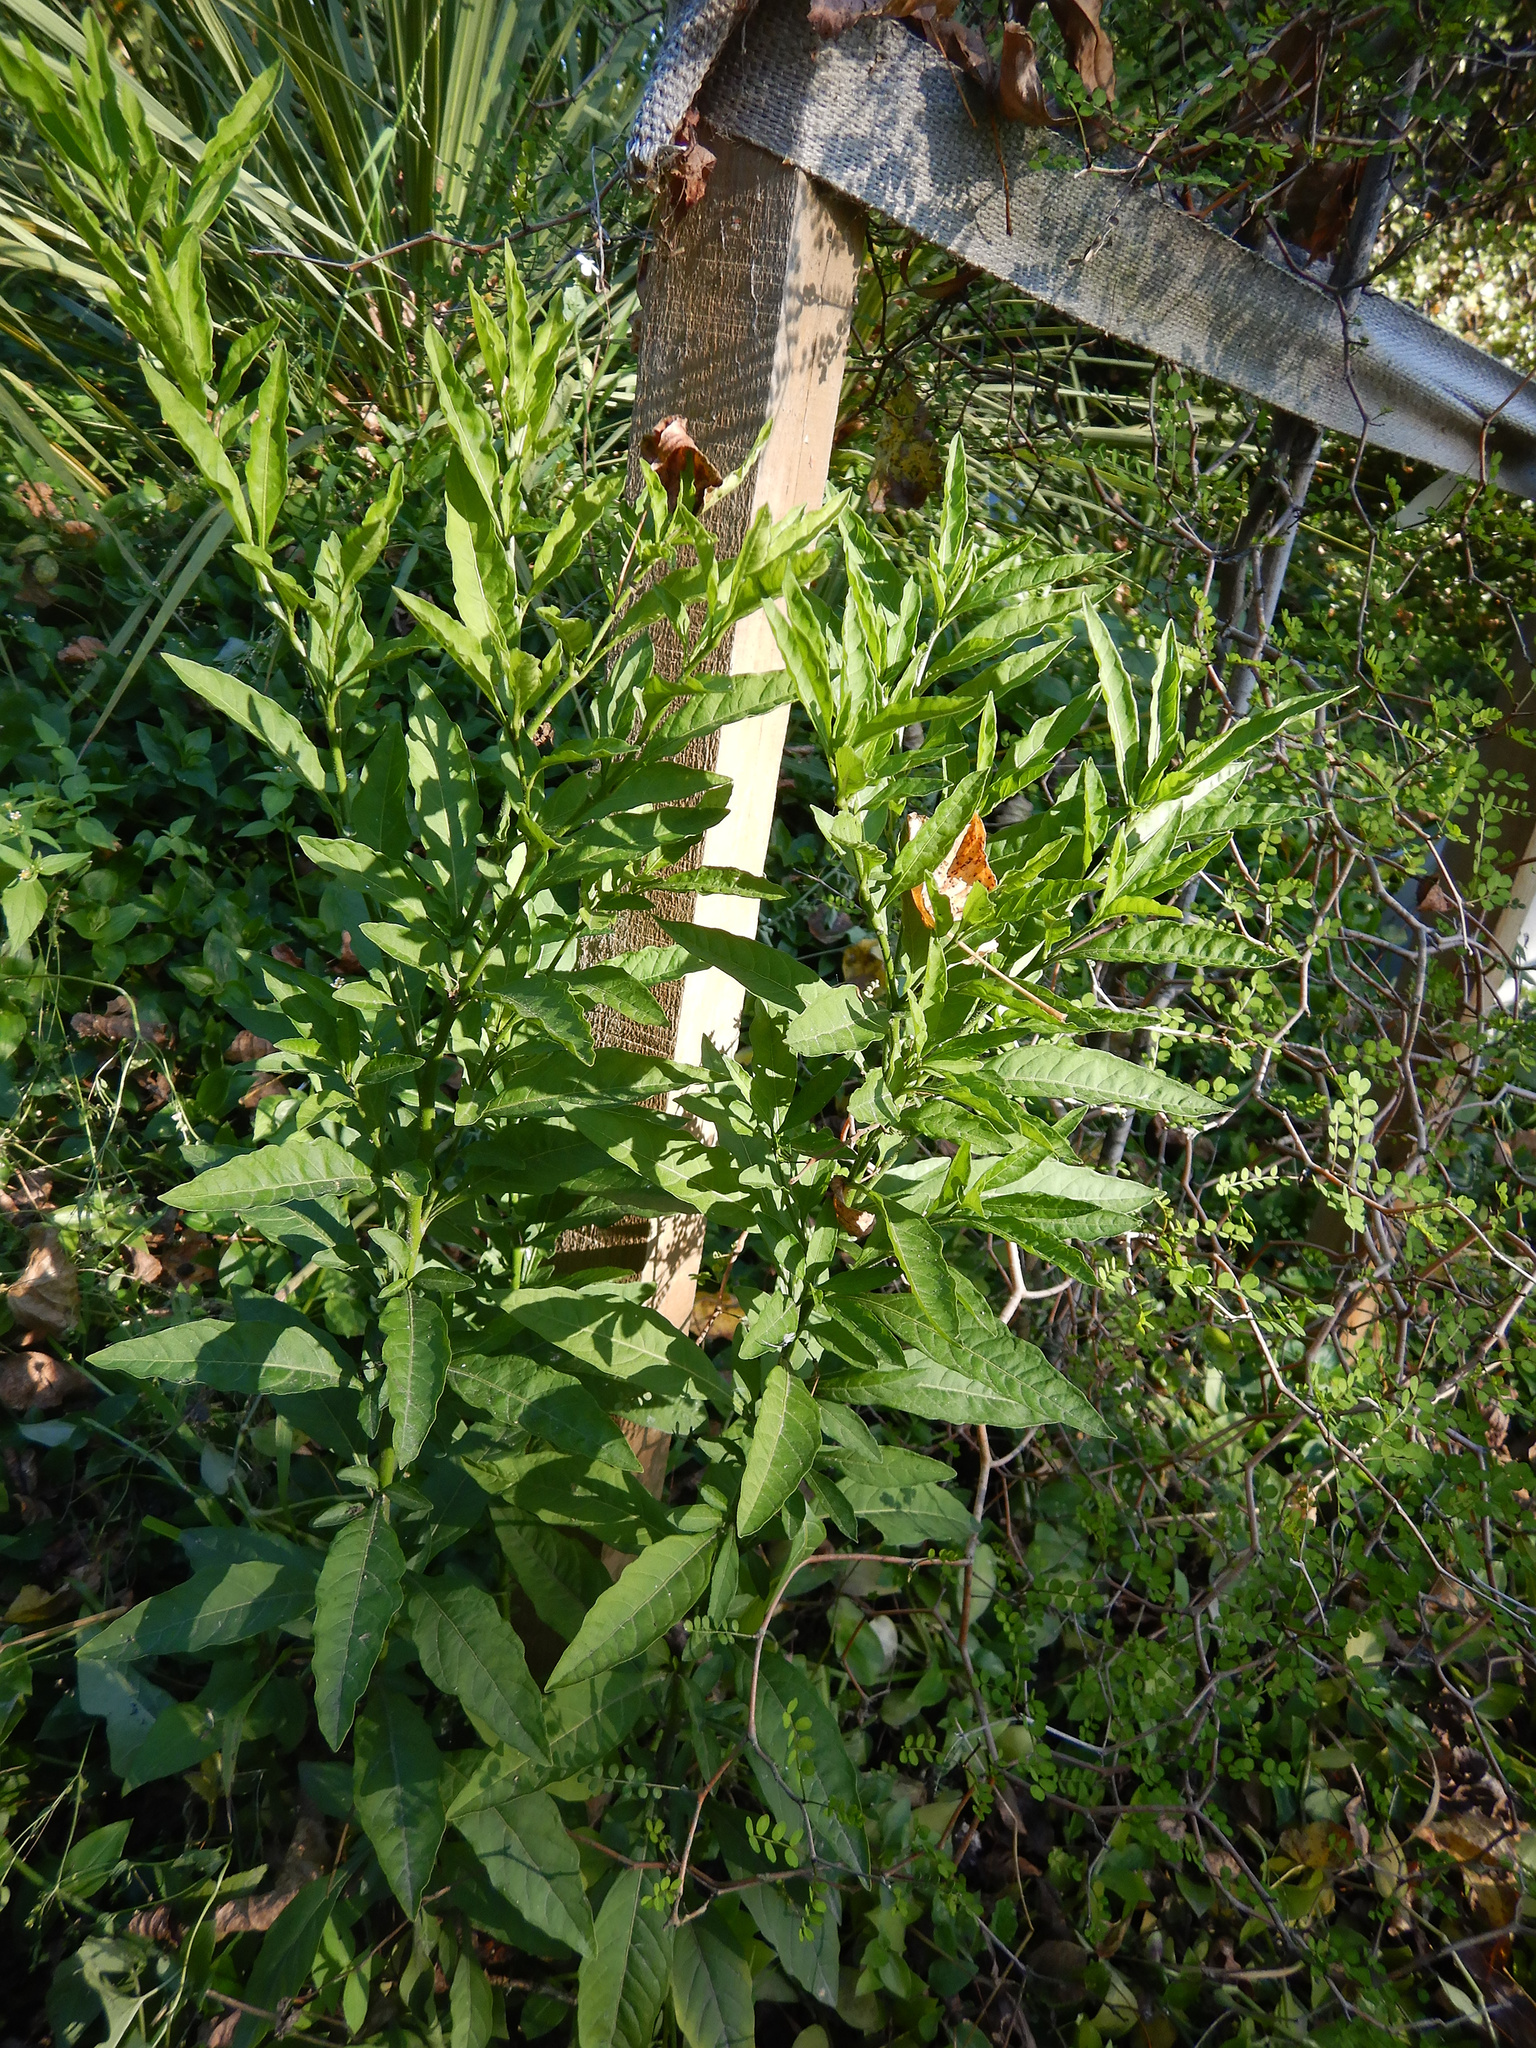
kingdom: Plantae
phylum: Tracheophyta
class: Magnoliopsida
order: Solanales
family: Solanaceae
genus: Solanum
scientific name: Solanum pseudocapsicum
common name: Jerusalem cherry
